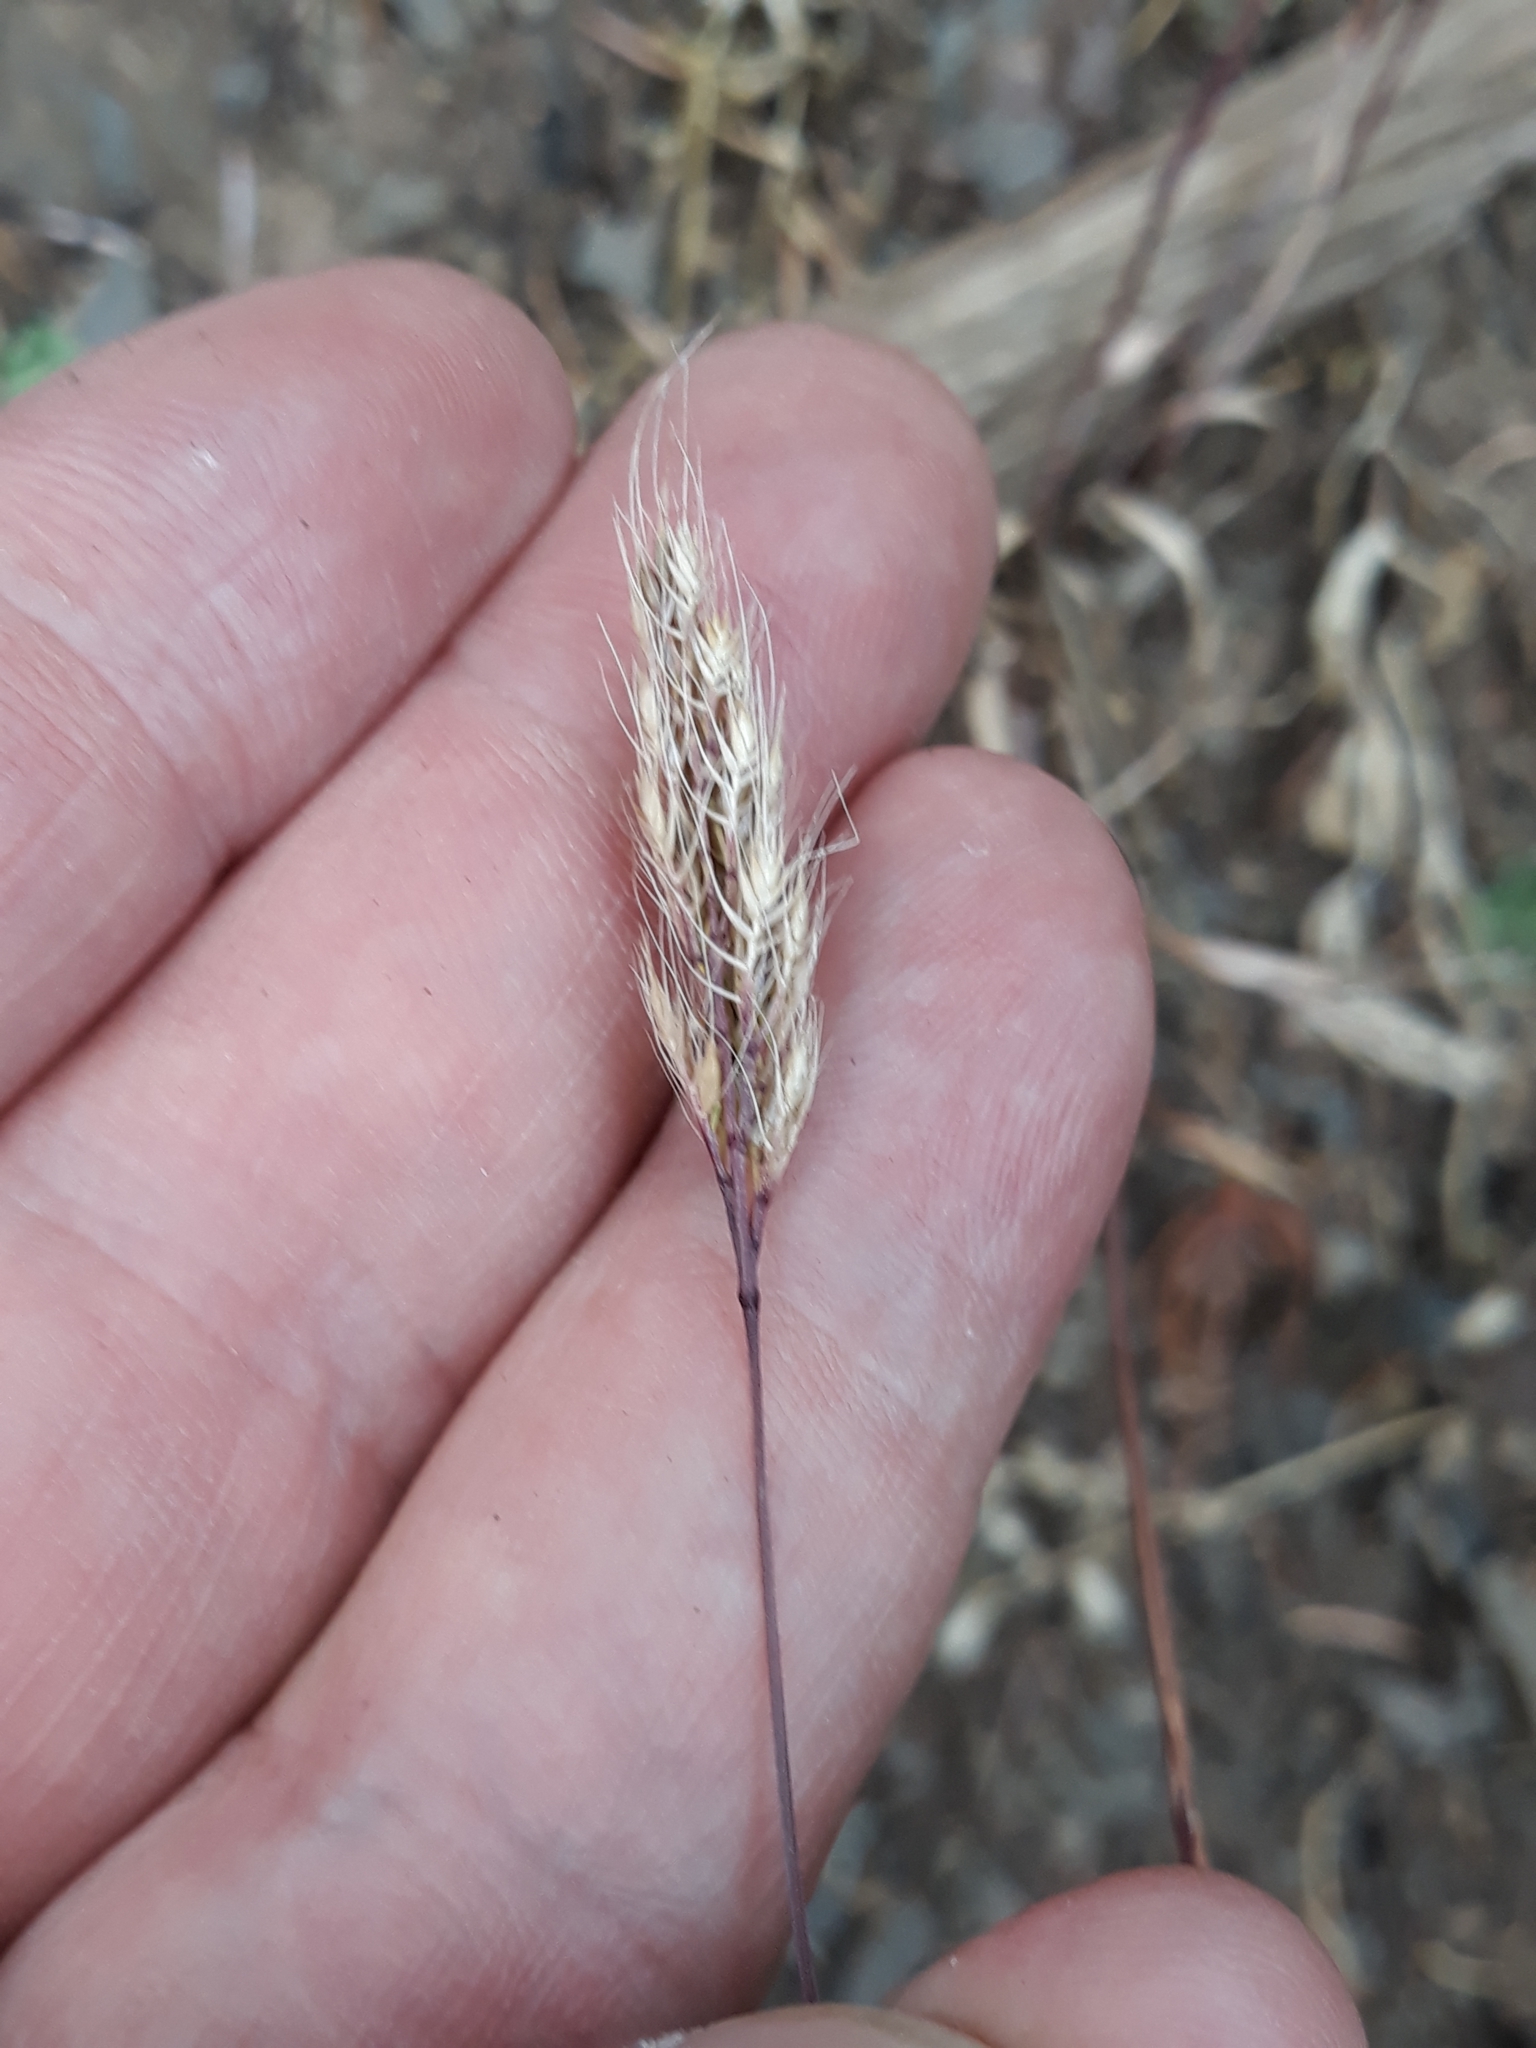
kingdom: Plantae
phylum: Tracheophyta
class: Liliopsida
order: Poales
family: Poaceae
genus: Cynosurus
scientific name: Cynosurus effusus
